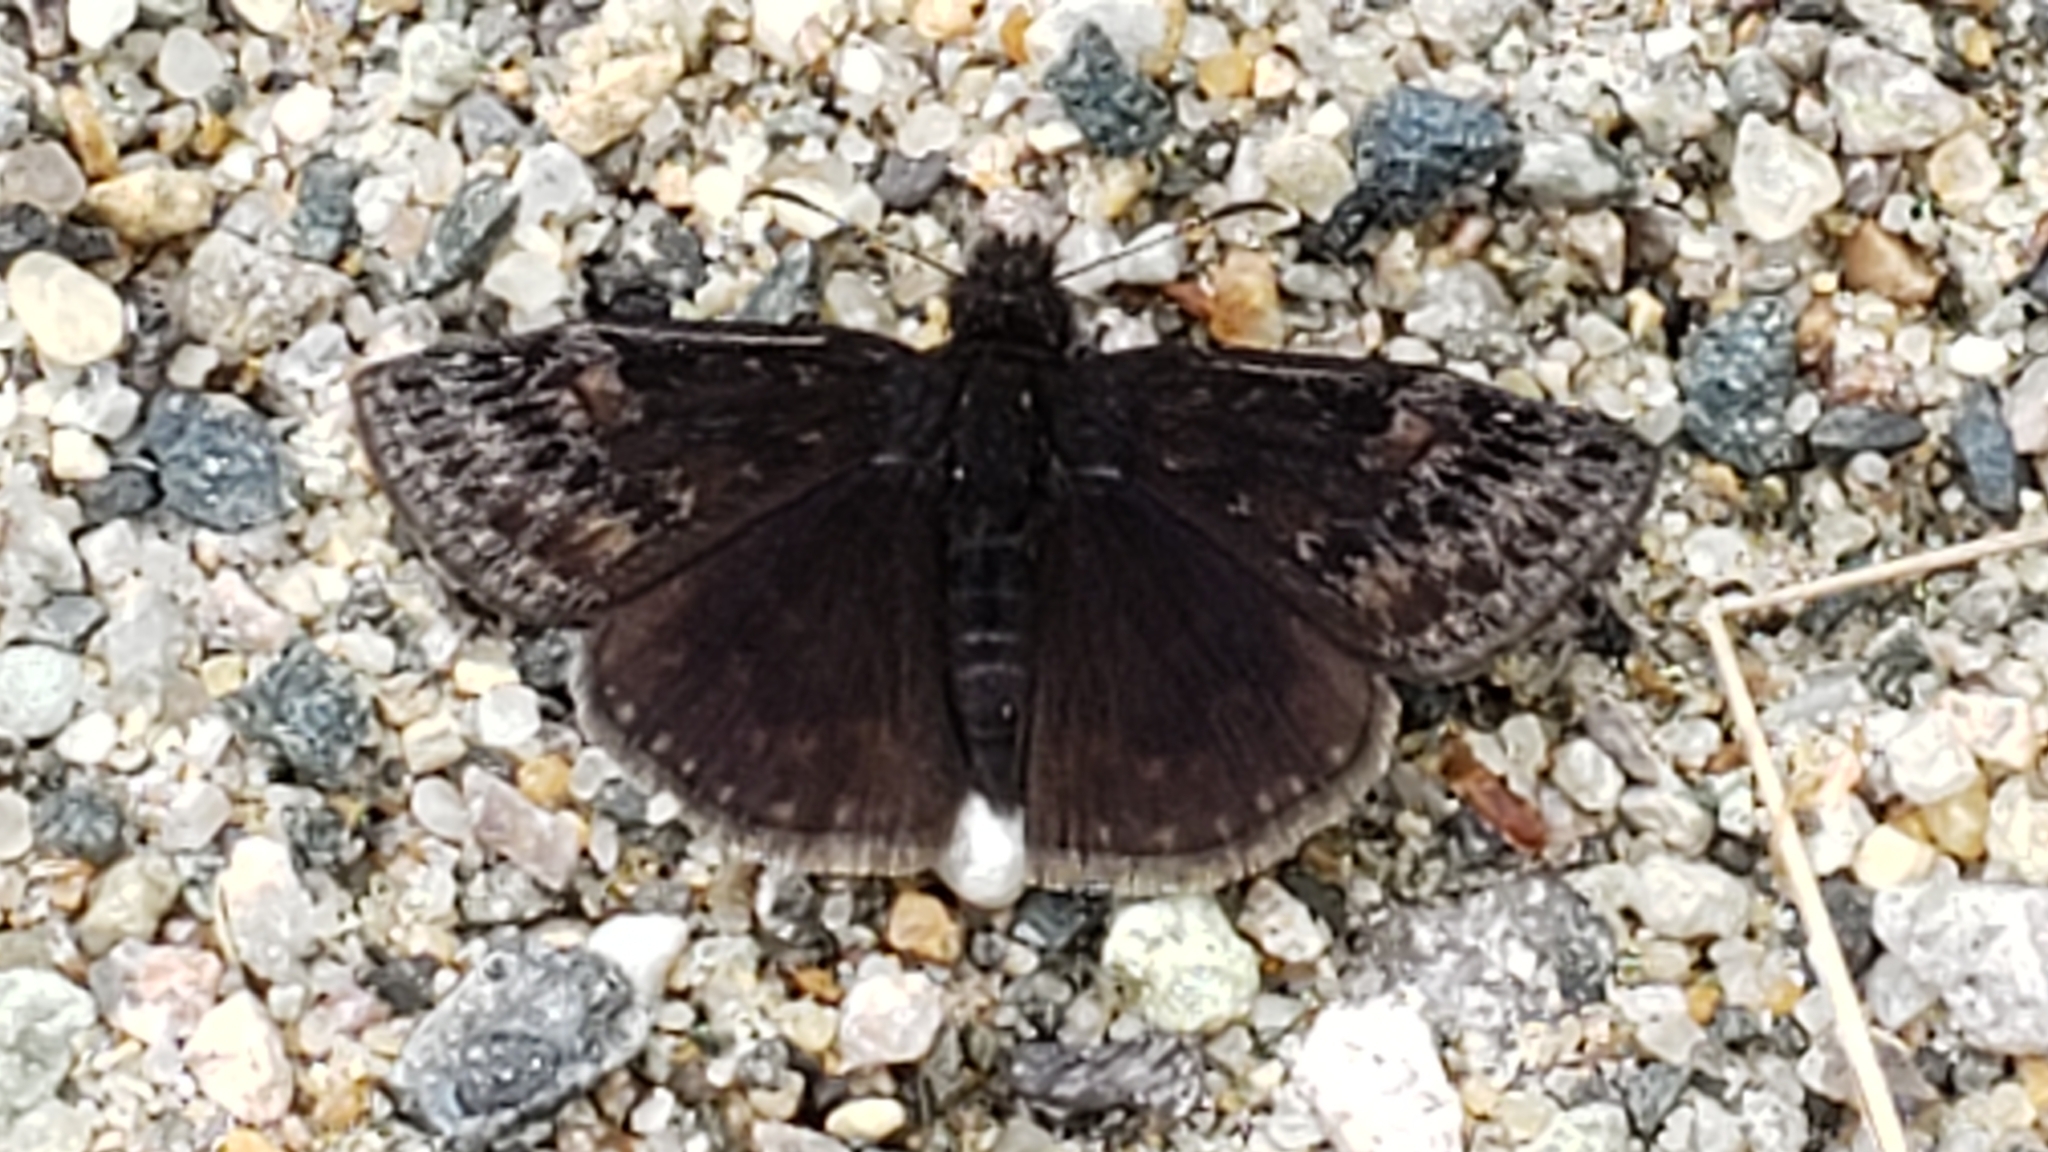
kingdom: Animalia
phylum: Arthropoda
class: Insecta
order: Lepidoptera
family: Hesperiidae
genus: Erynnis
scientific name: Erynnis juvenalis
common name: Juvenal's duskywing
